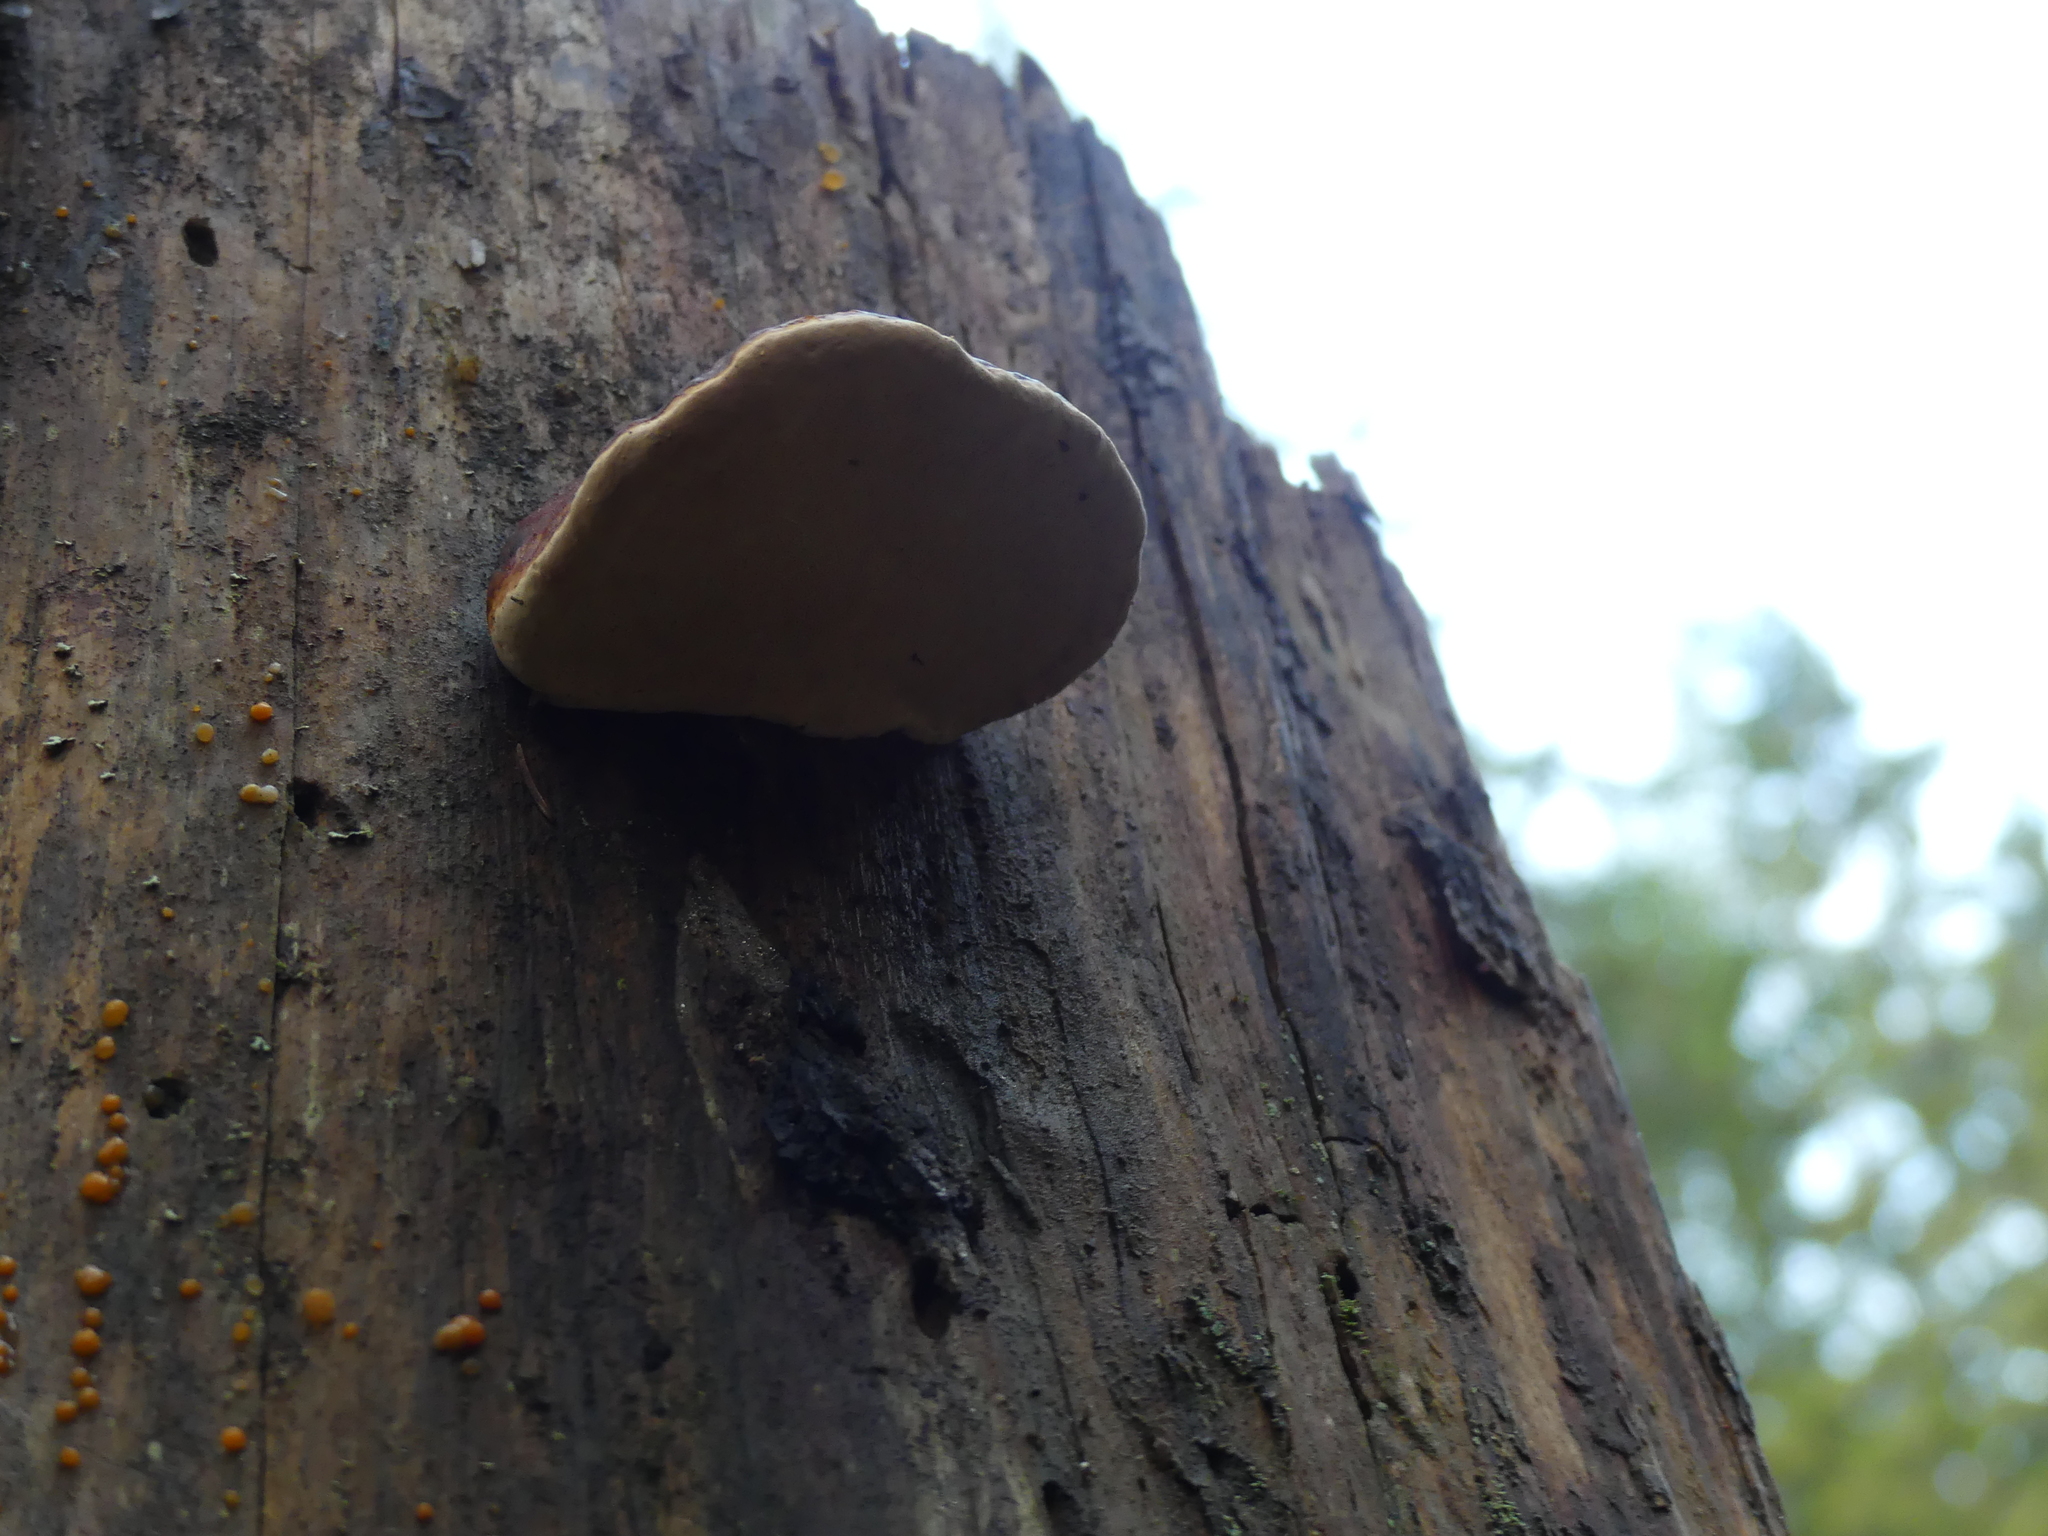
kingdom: Fungi
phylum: Basidiomycota
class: Agaricomycetes
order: Polyporales
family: Fomitopsidaceae
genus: Fomitopsis
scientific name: Fomitopsis pinicola
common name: Red-belted bracket
